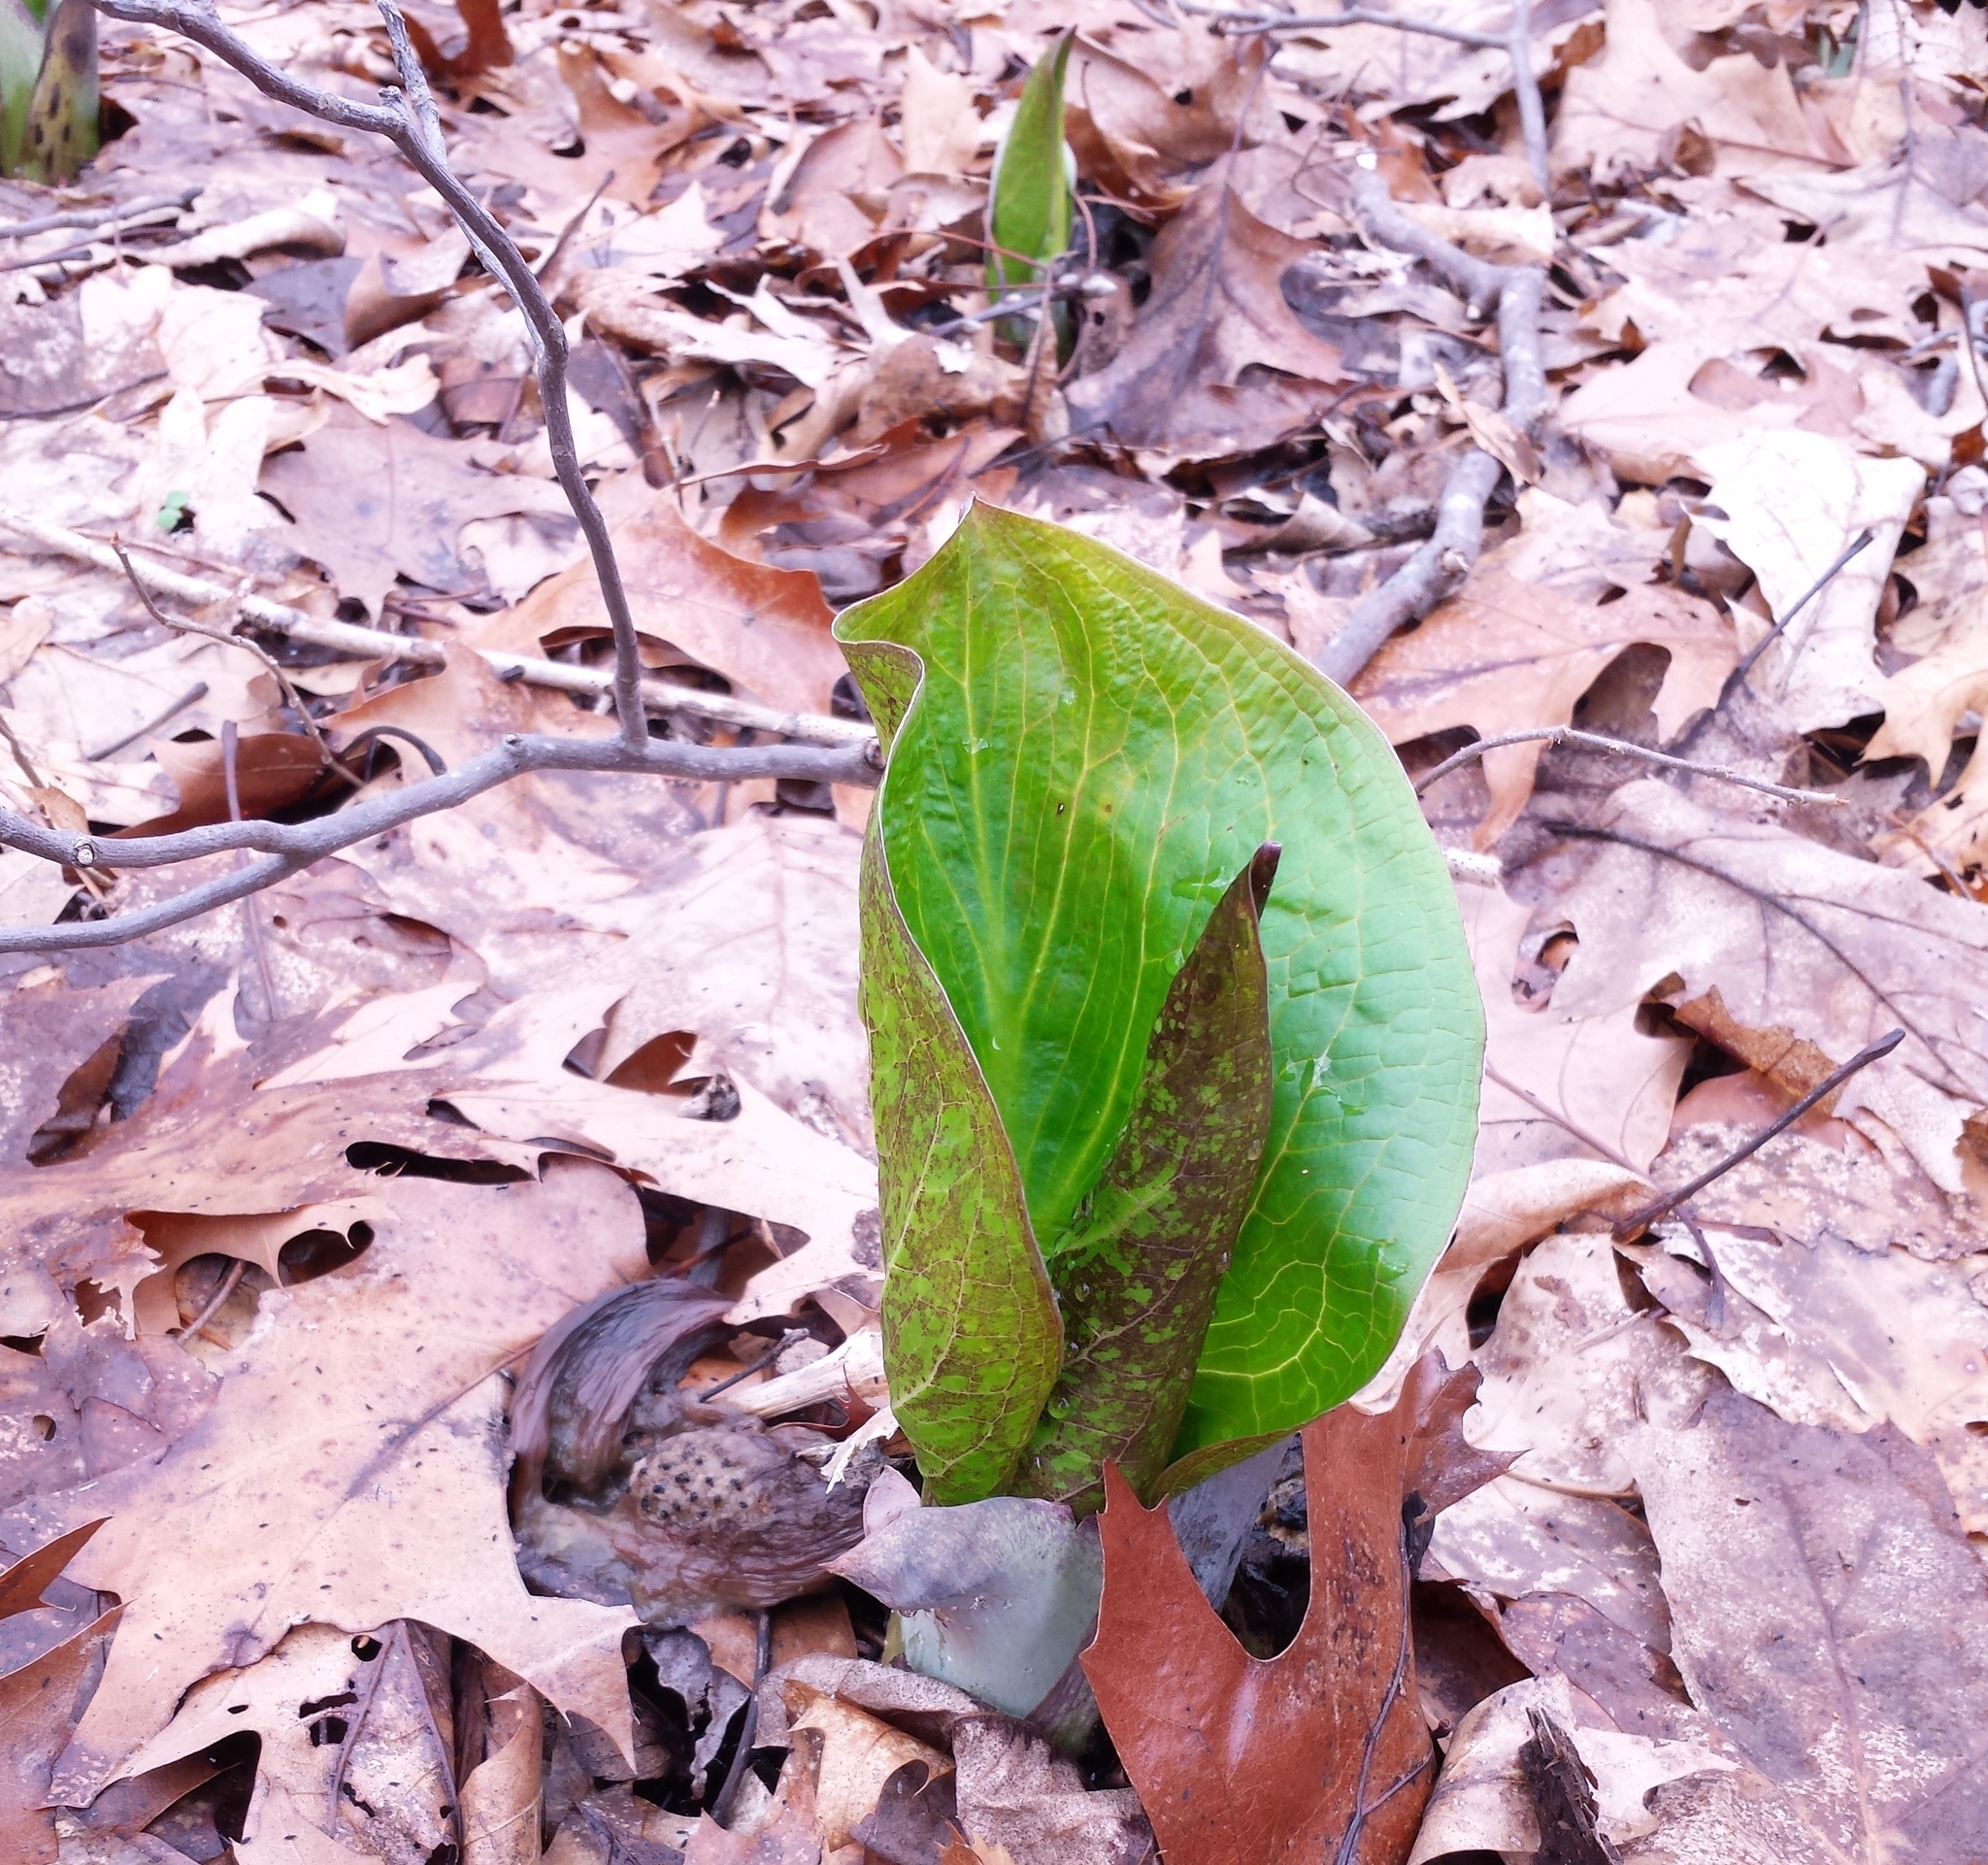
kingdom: Plantae
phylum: Tracheophyta
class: Liliopsida
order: Alismatales
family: Araceae
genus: Symplocarpus
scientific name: Symplocarpus foetidus
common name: Eastern skunk cabbage
